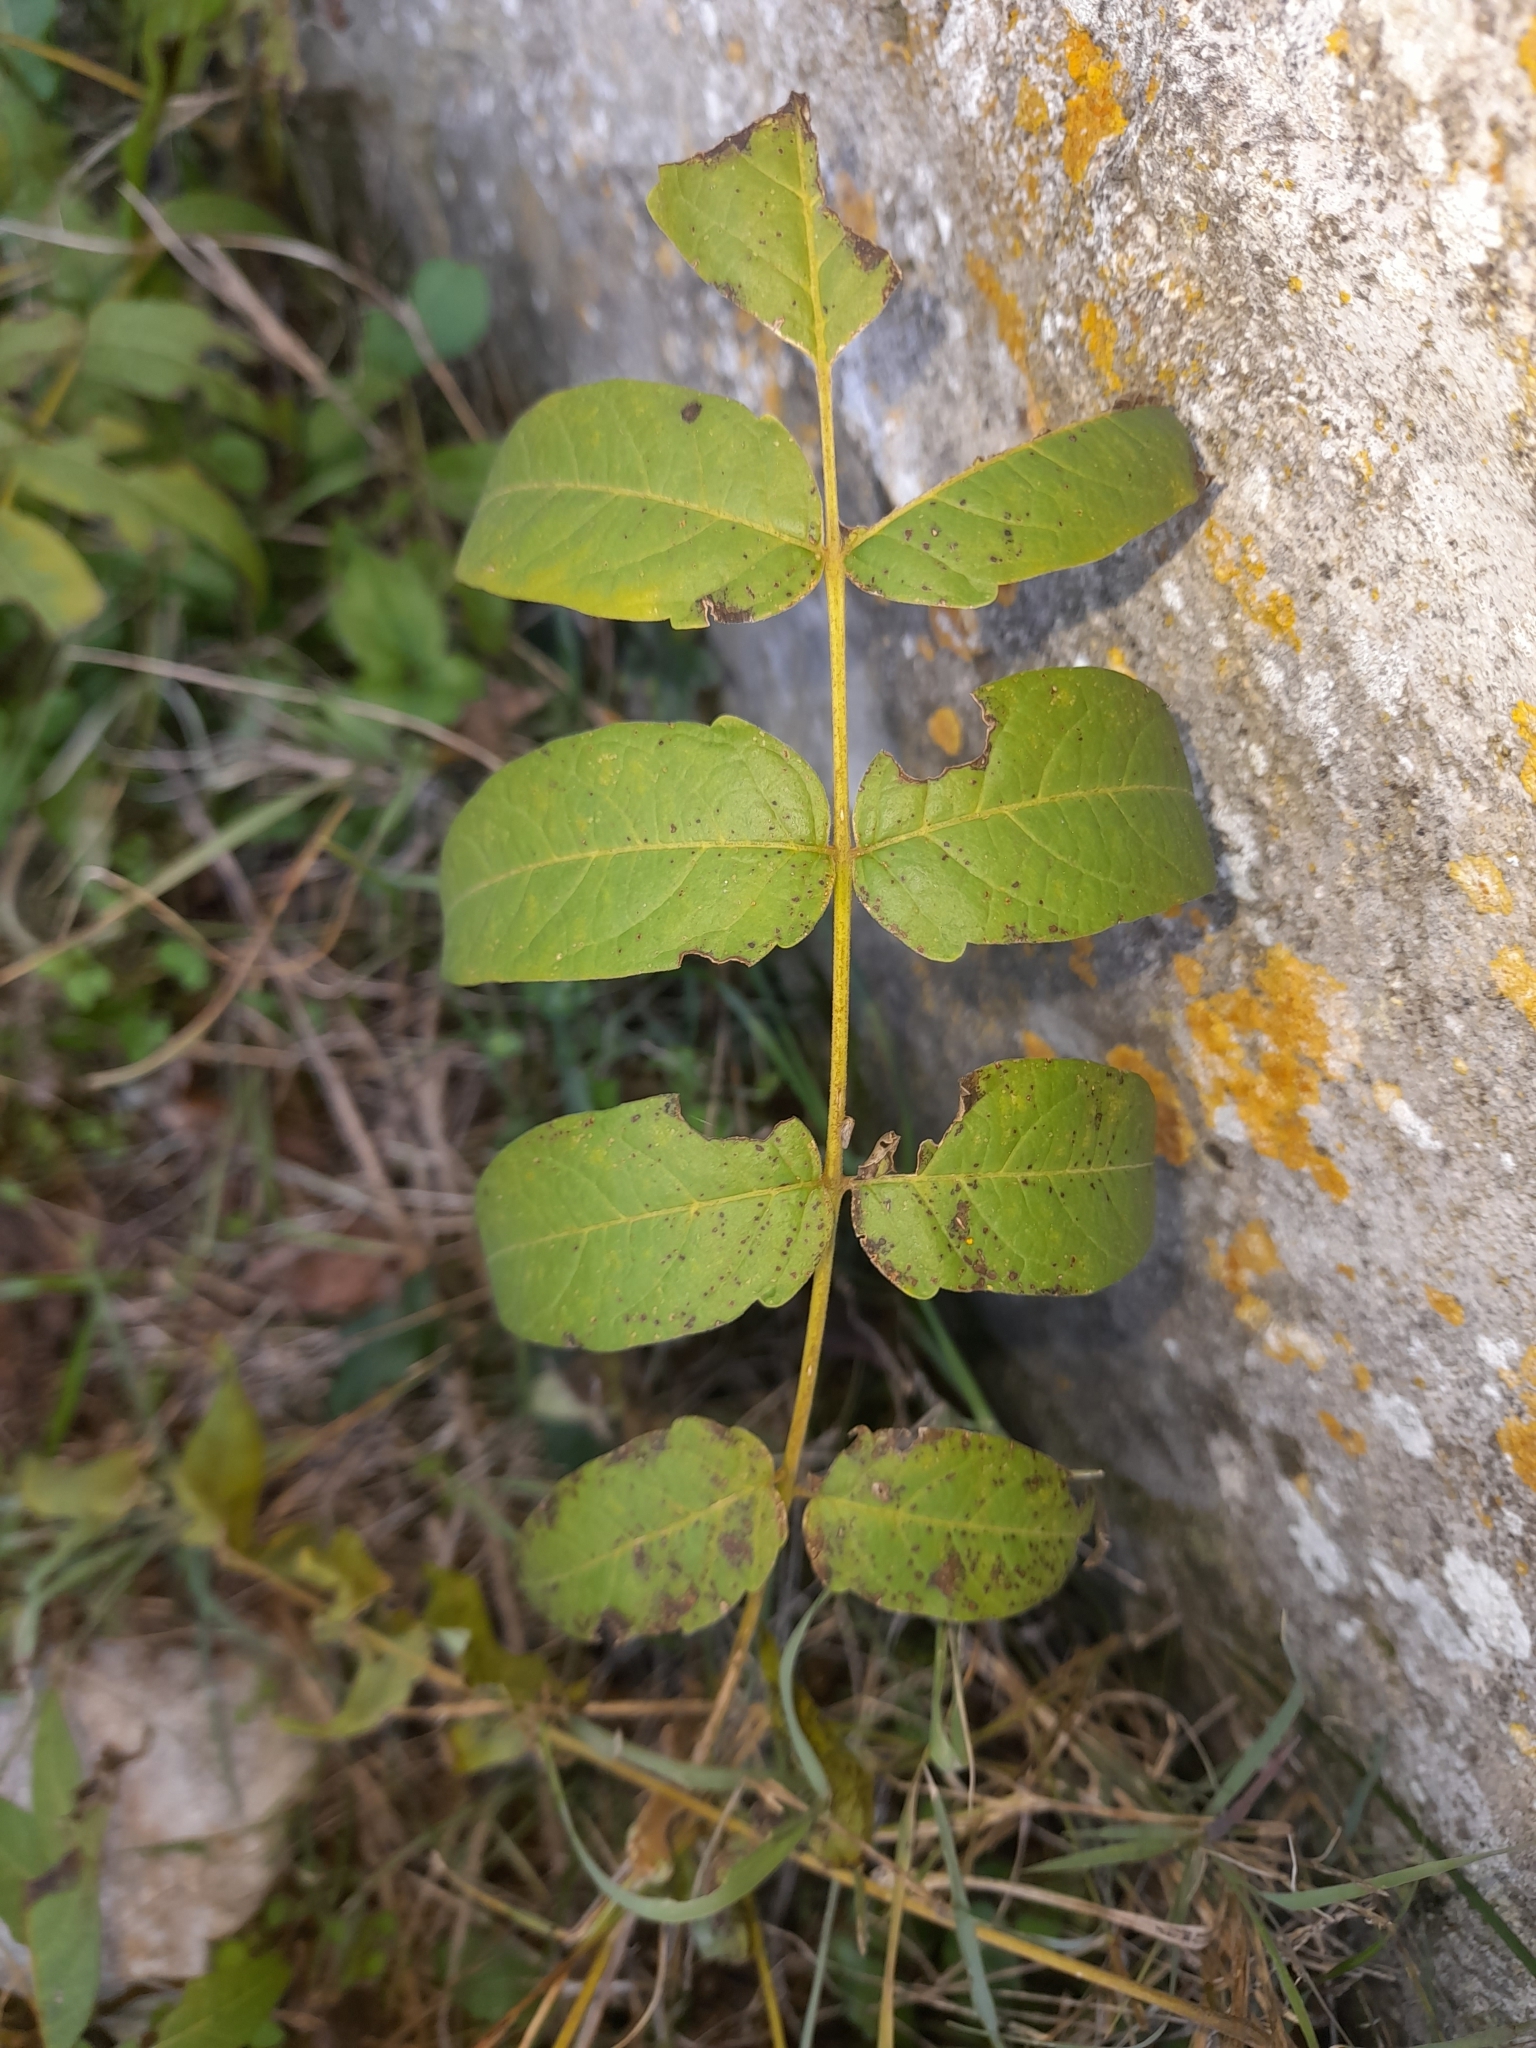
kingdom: Plantae
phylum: Tracheophyta
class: Magnoliopsida
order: Sapindales
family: Simaroubaceae
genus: Ailanthus
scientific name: Ailanthus altissima
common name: Tree-of-heaven
